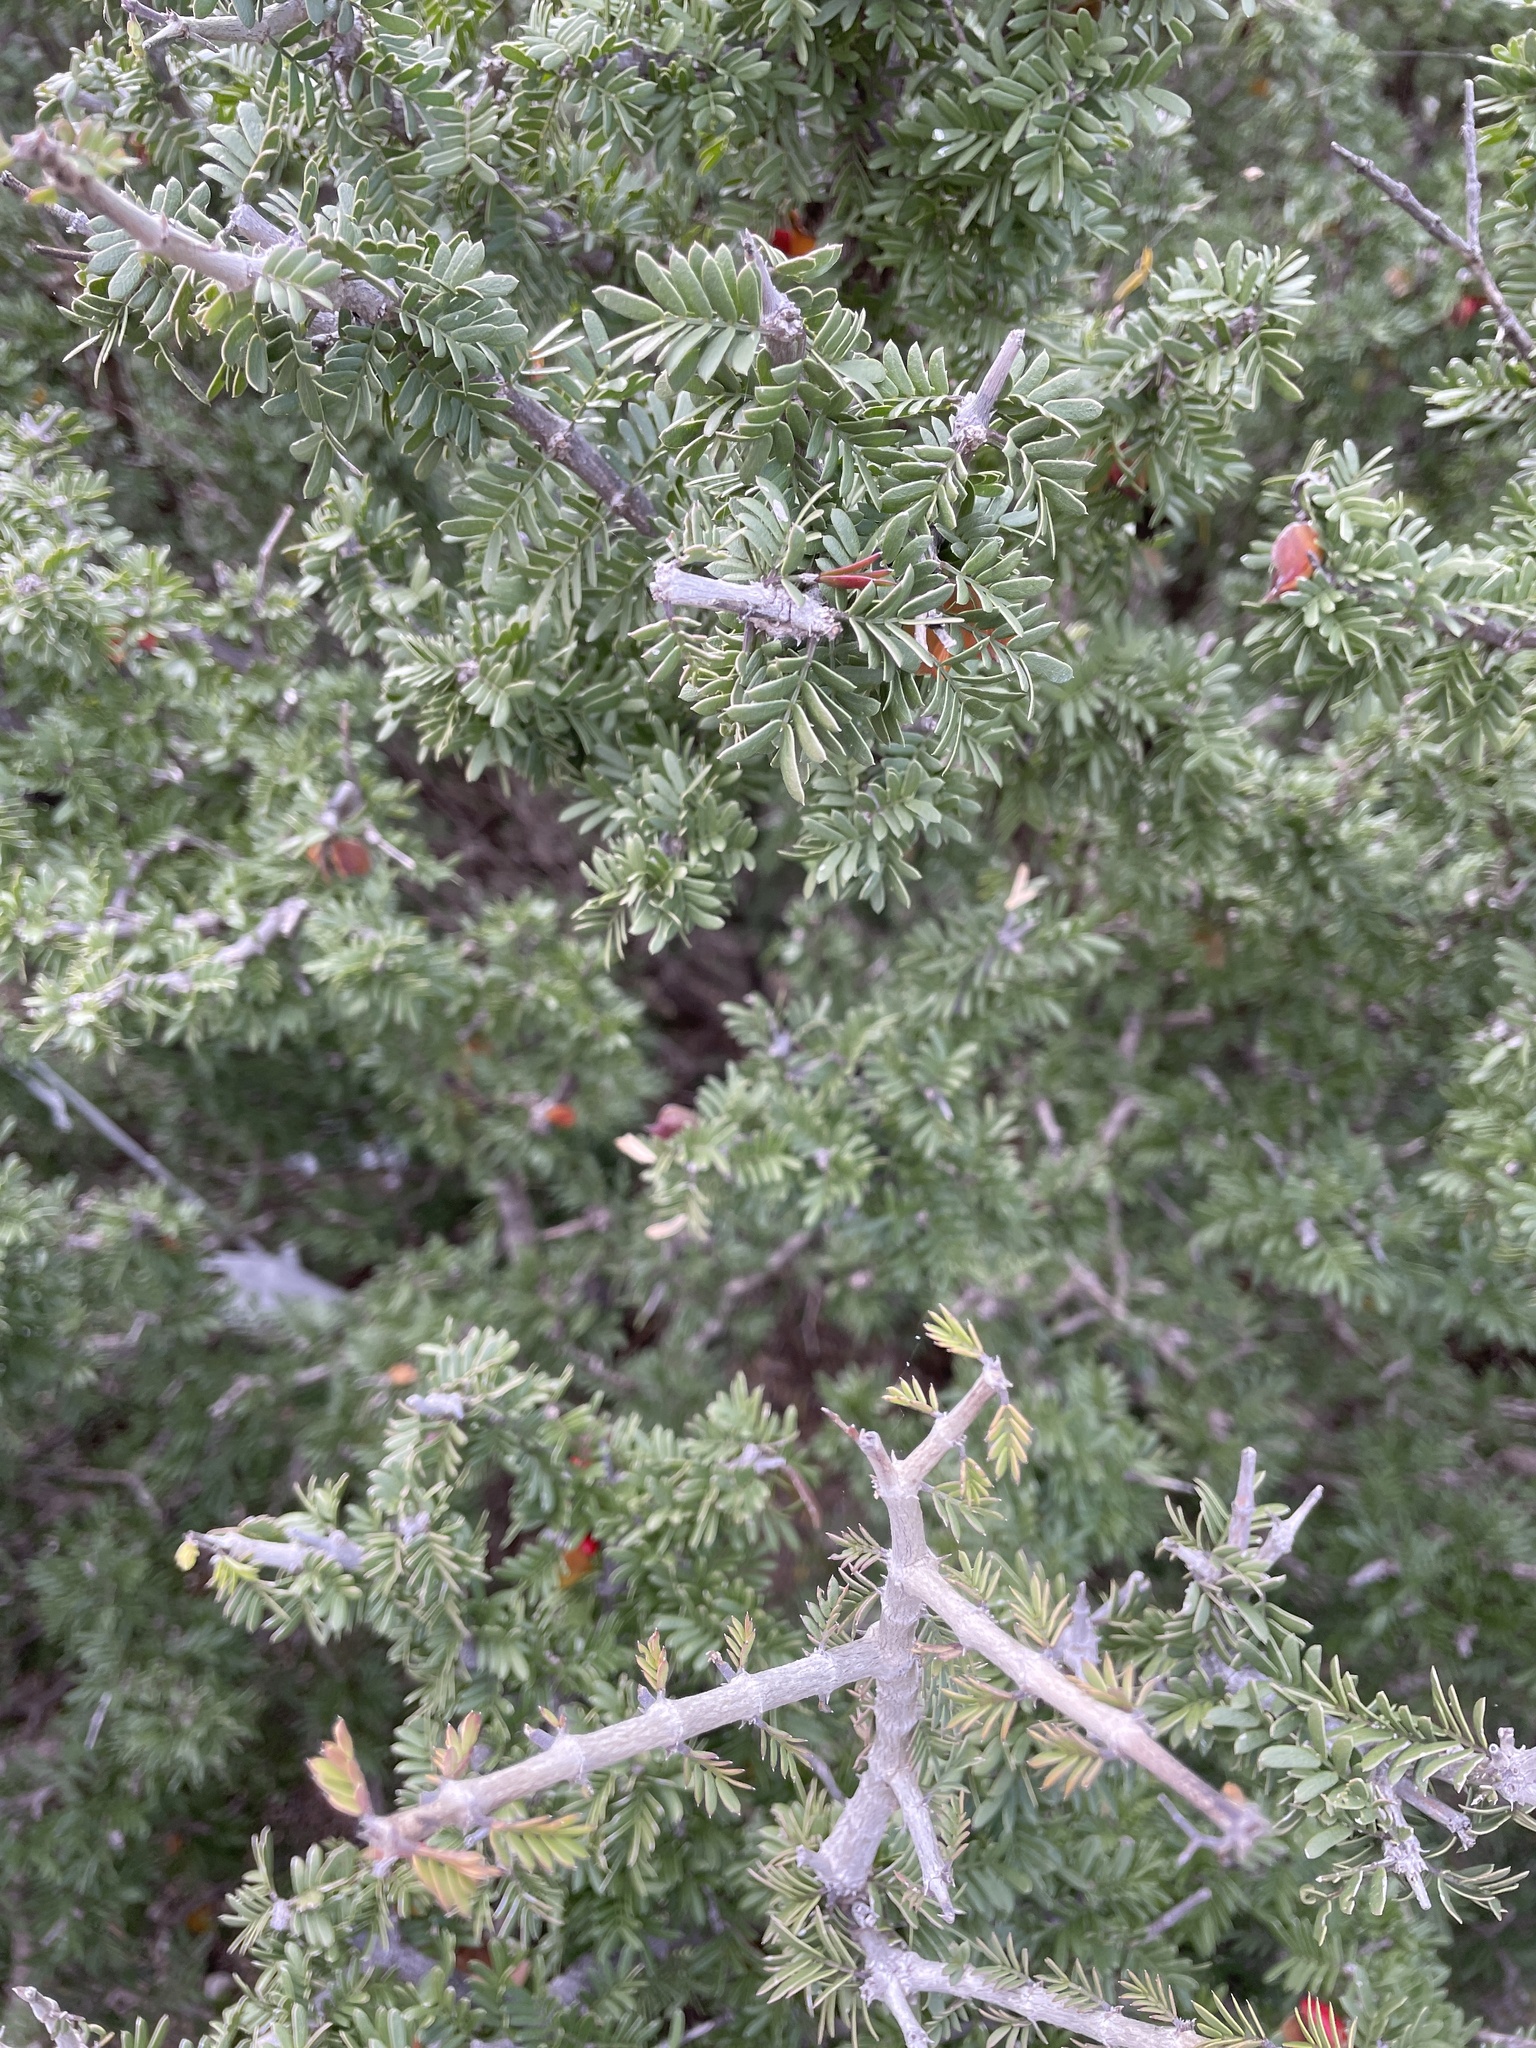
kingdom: Plantae
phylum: Tracheophyta
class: Magnoliopsida
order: Zygophyllales
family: Zygophyllaceae
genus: Porlieria
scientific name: Porlieria angustifolia
